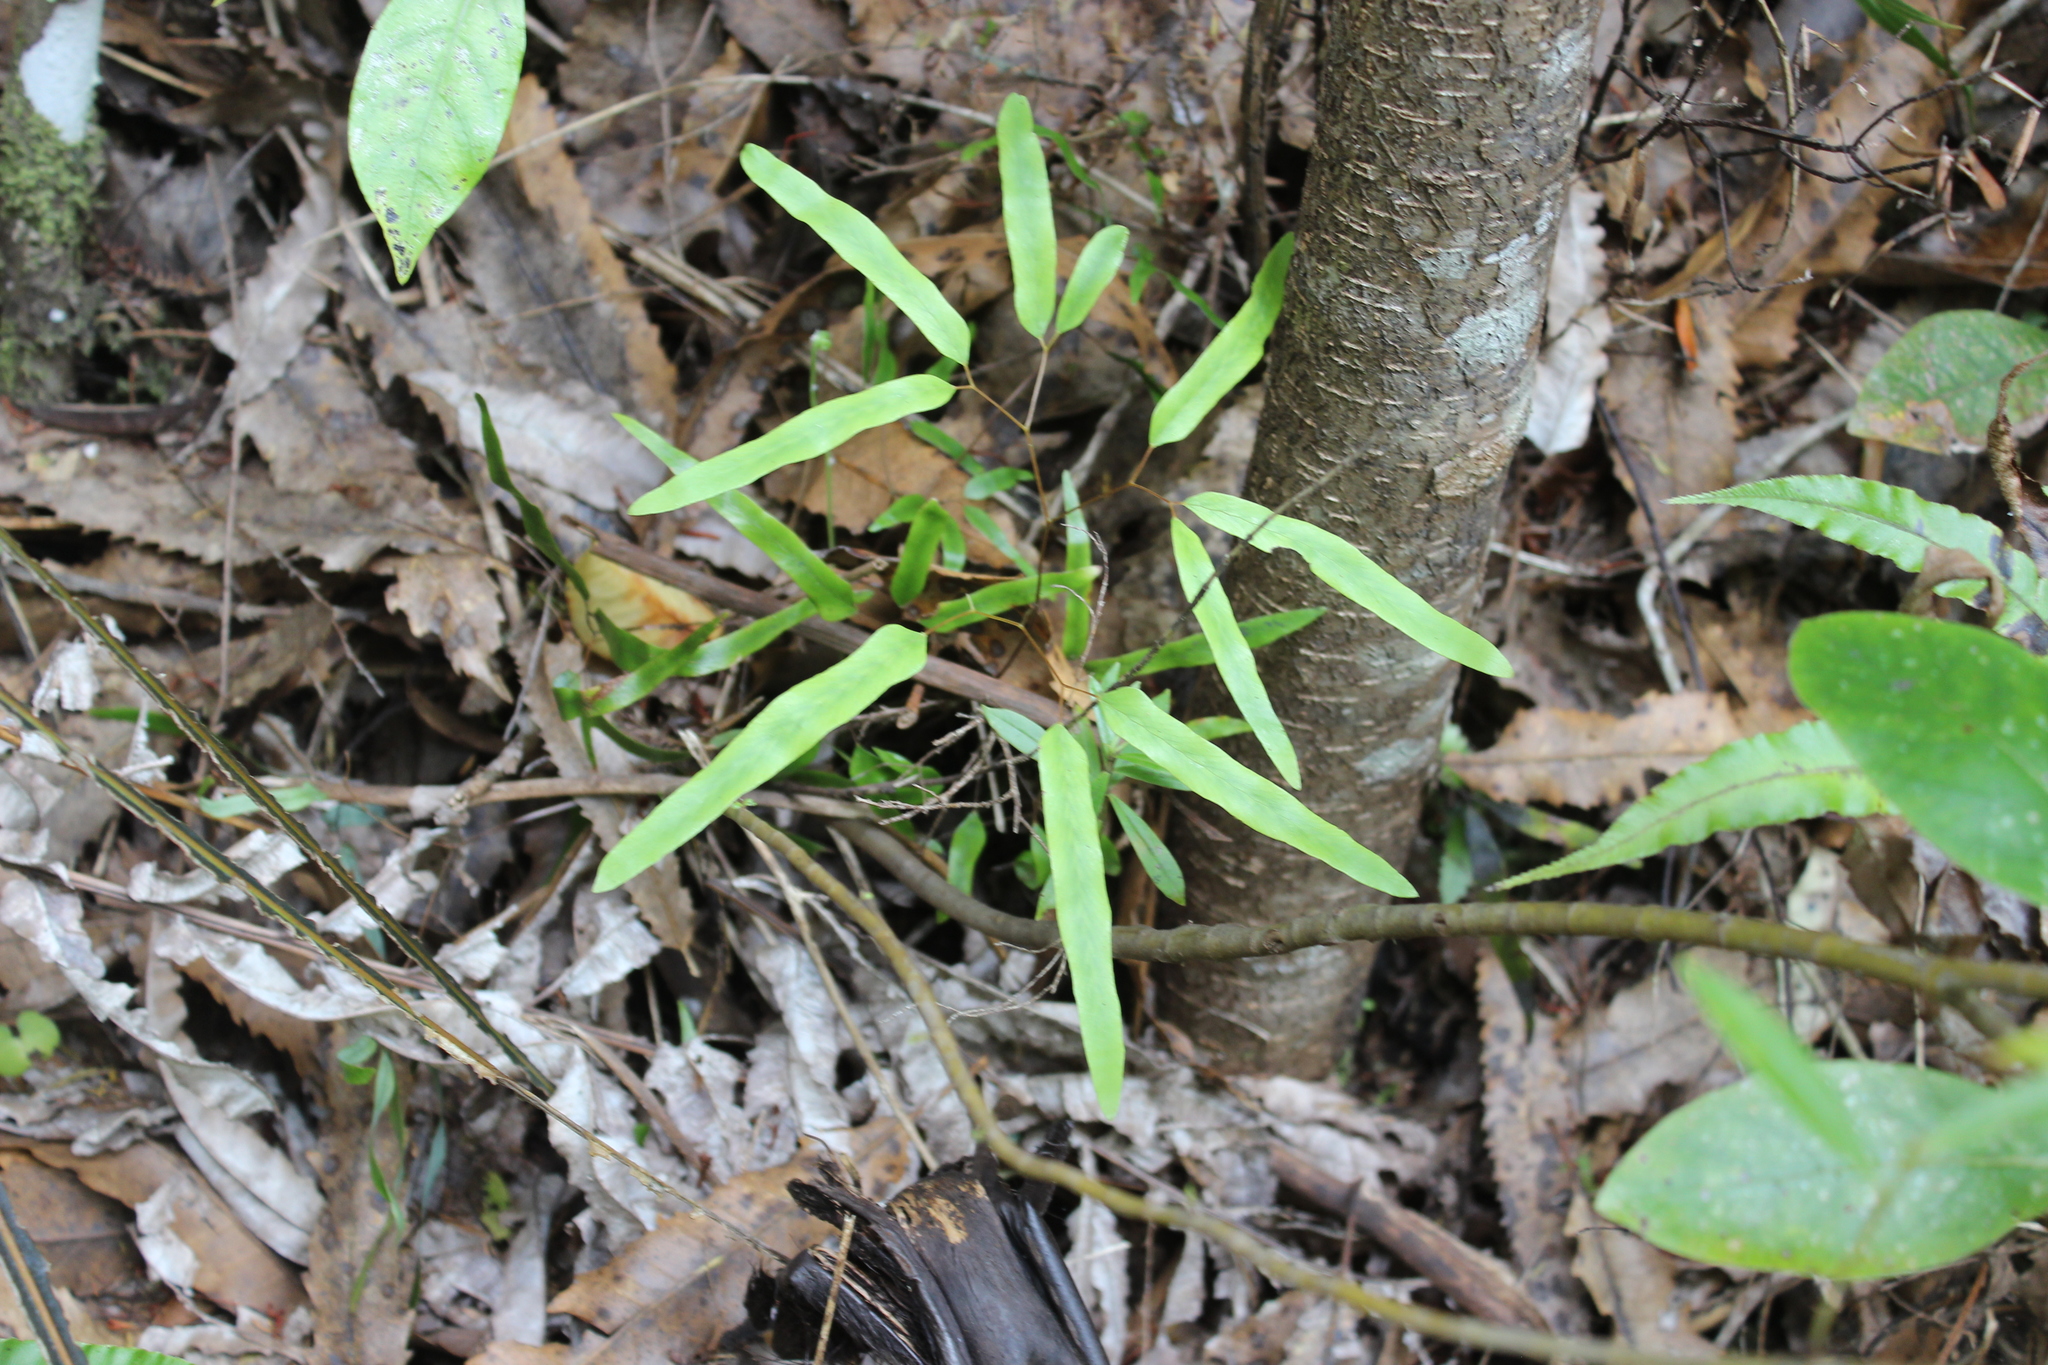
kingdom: Plantae
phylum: Tracheophyta
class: Polypodiopsida
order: Schizaeales
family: Lygodiaceae
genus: Lygodium
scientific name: Lygodium articulatum
